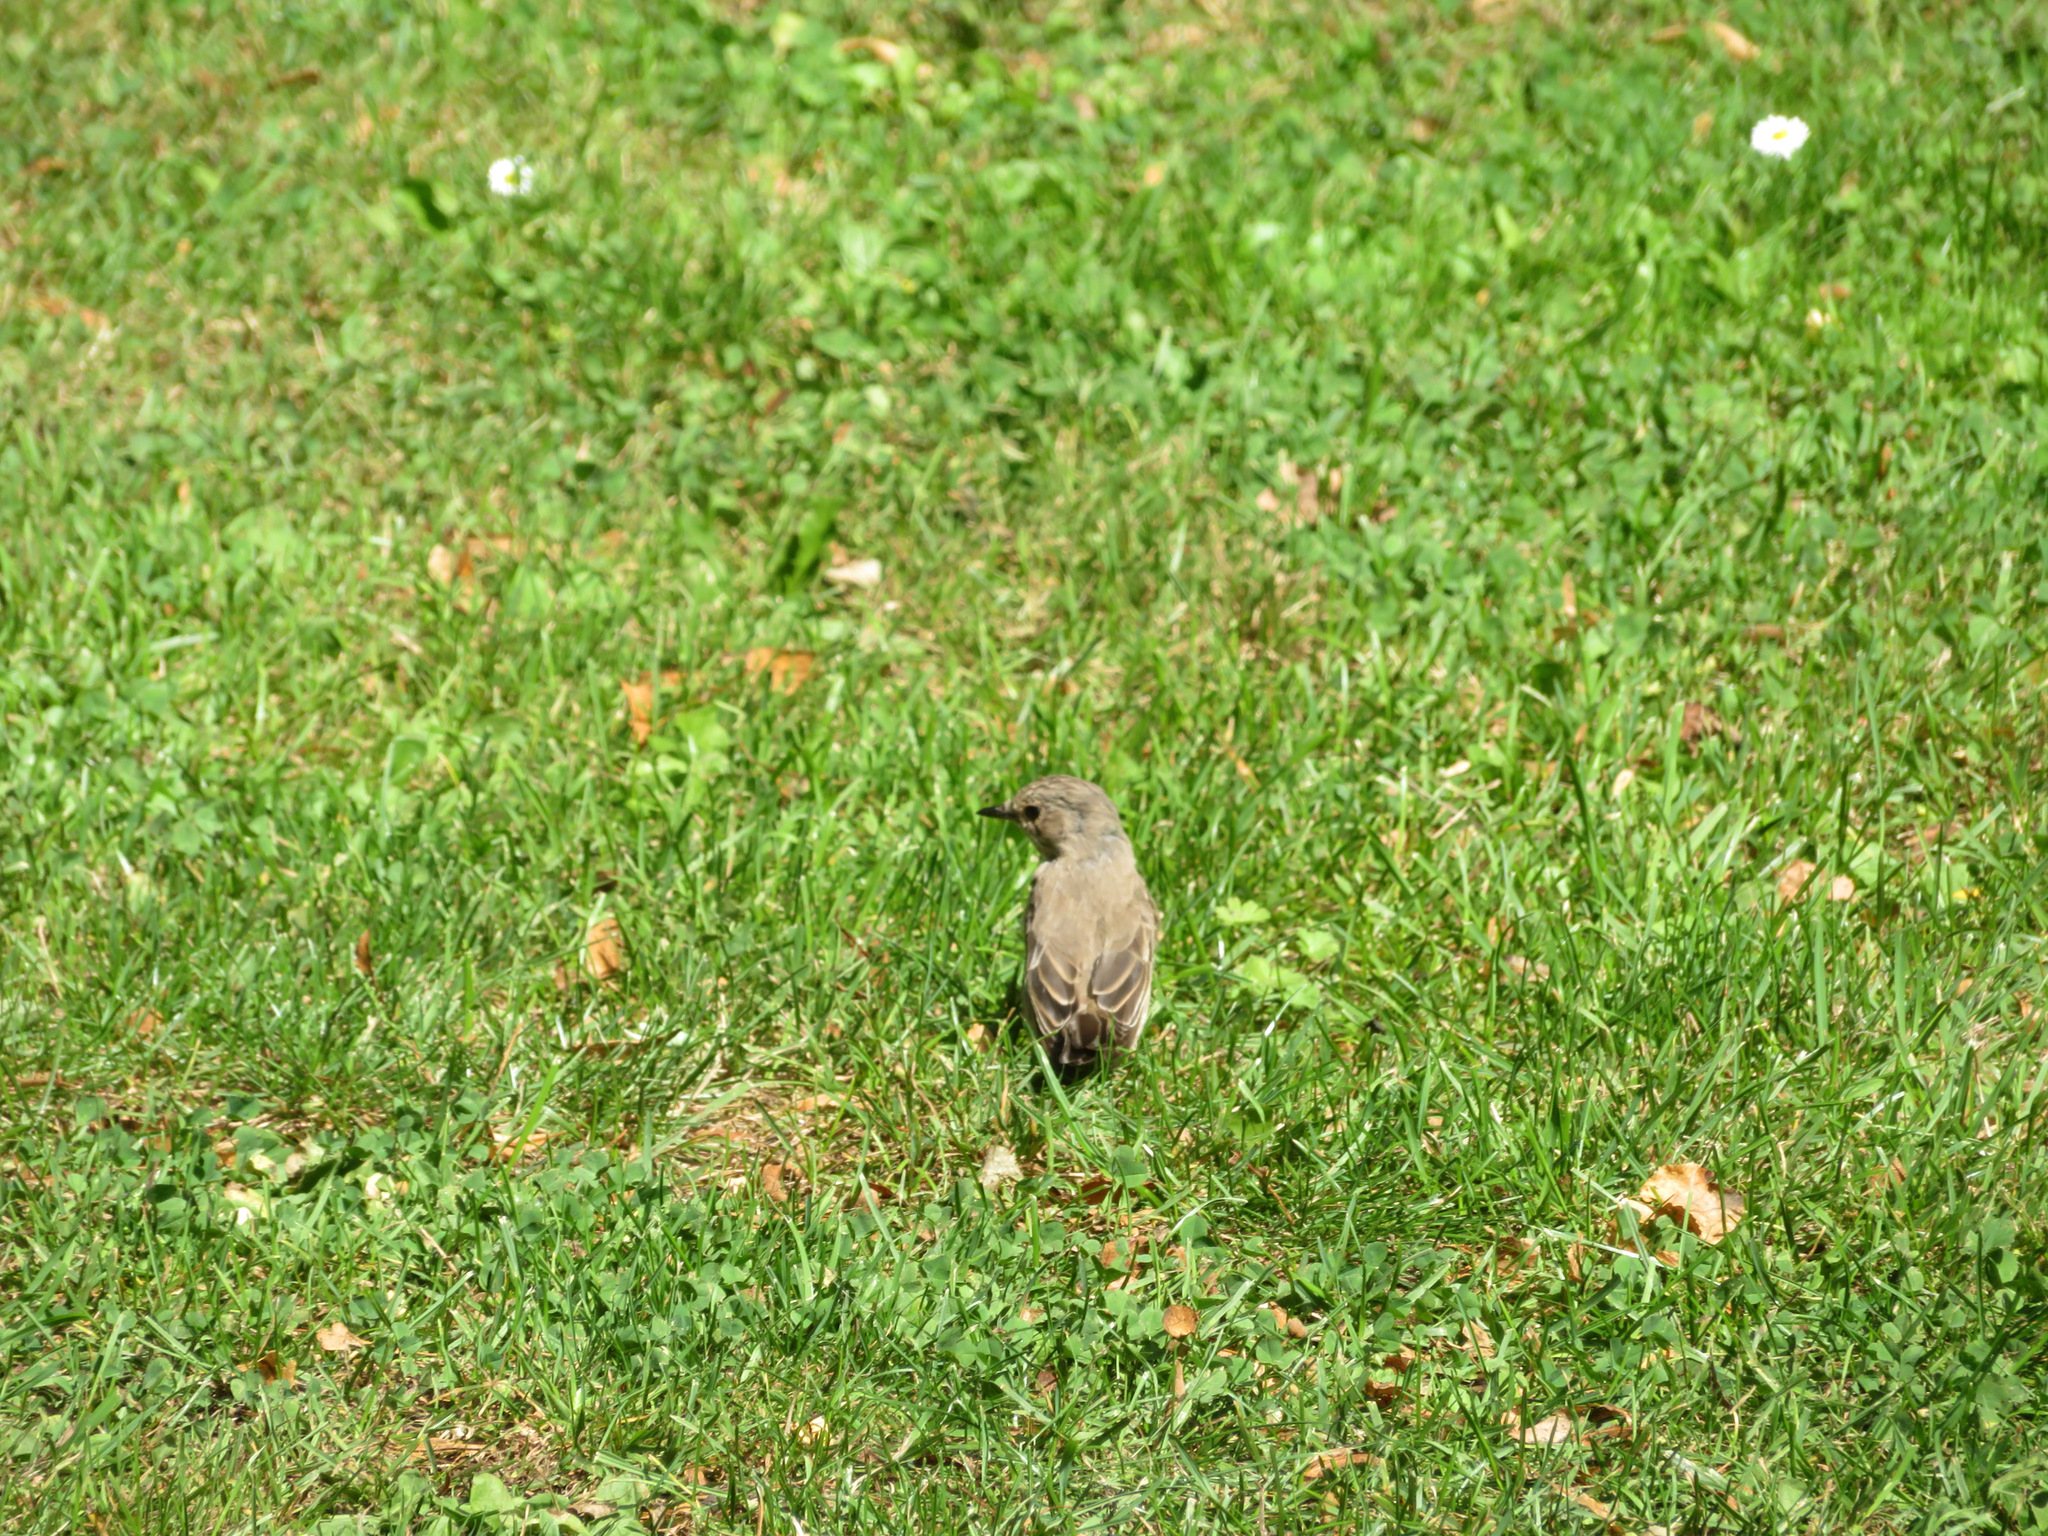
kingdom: Animalia
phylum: Chordata
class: Aves
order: Passeriformes
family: Muscicapidae
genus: Muscicapa
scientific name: Muscicapa striata
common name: Spotted flycatcher
